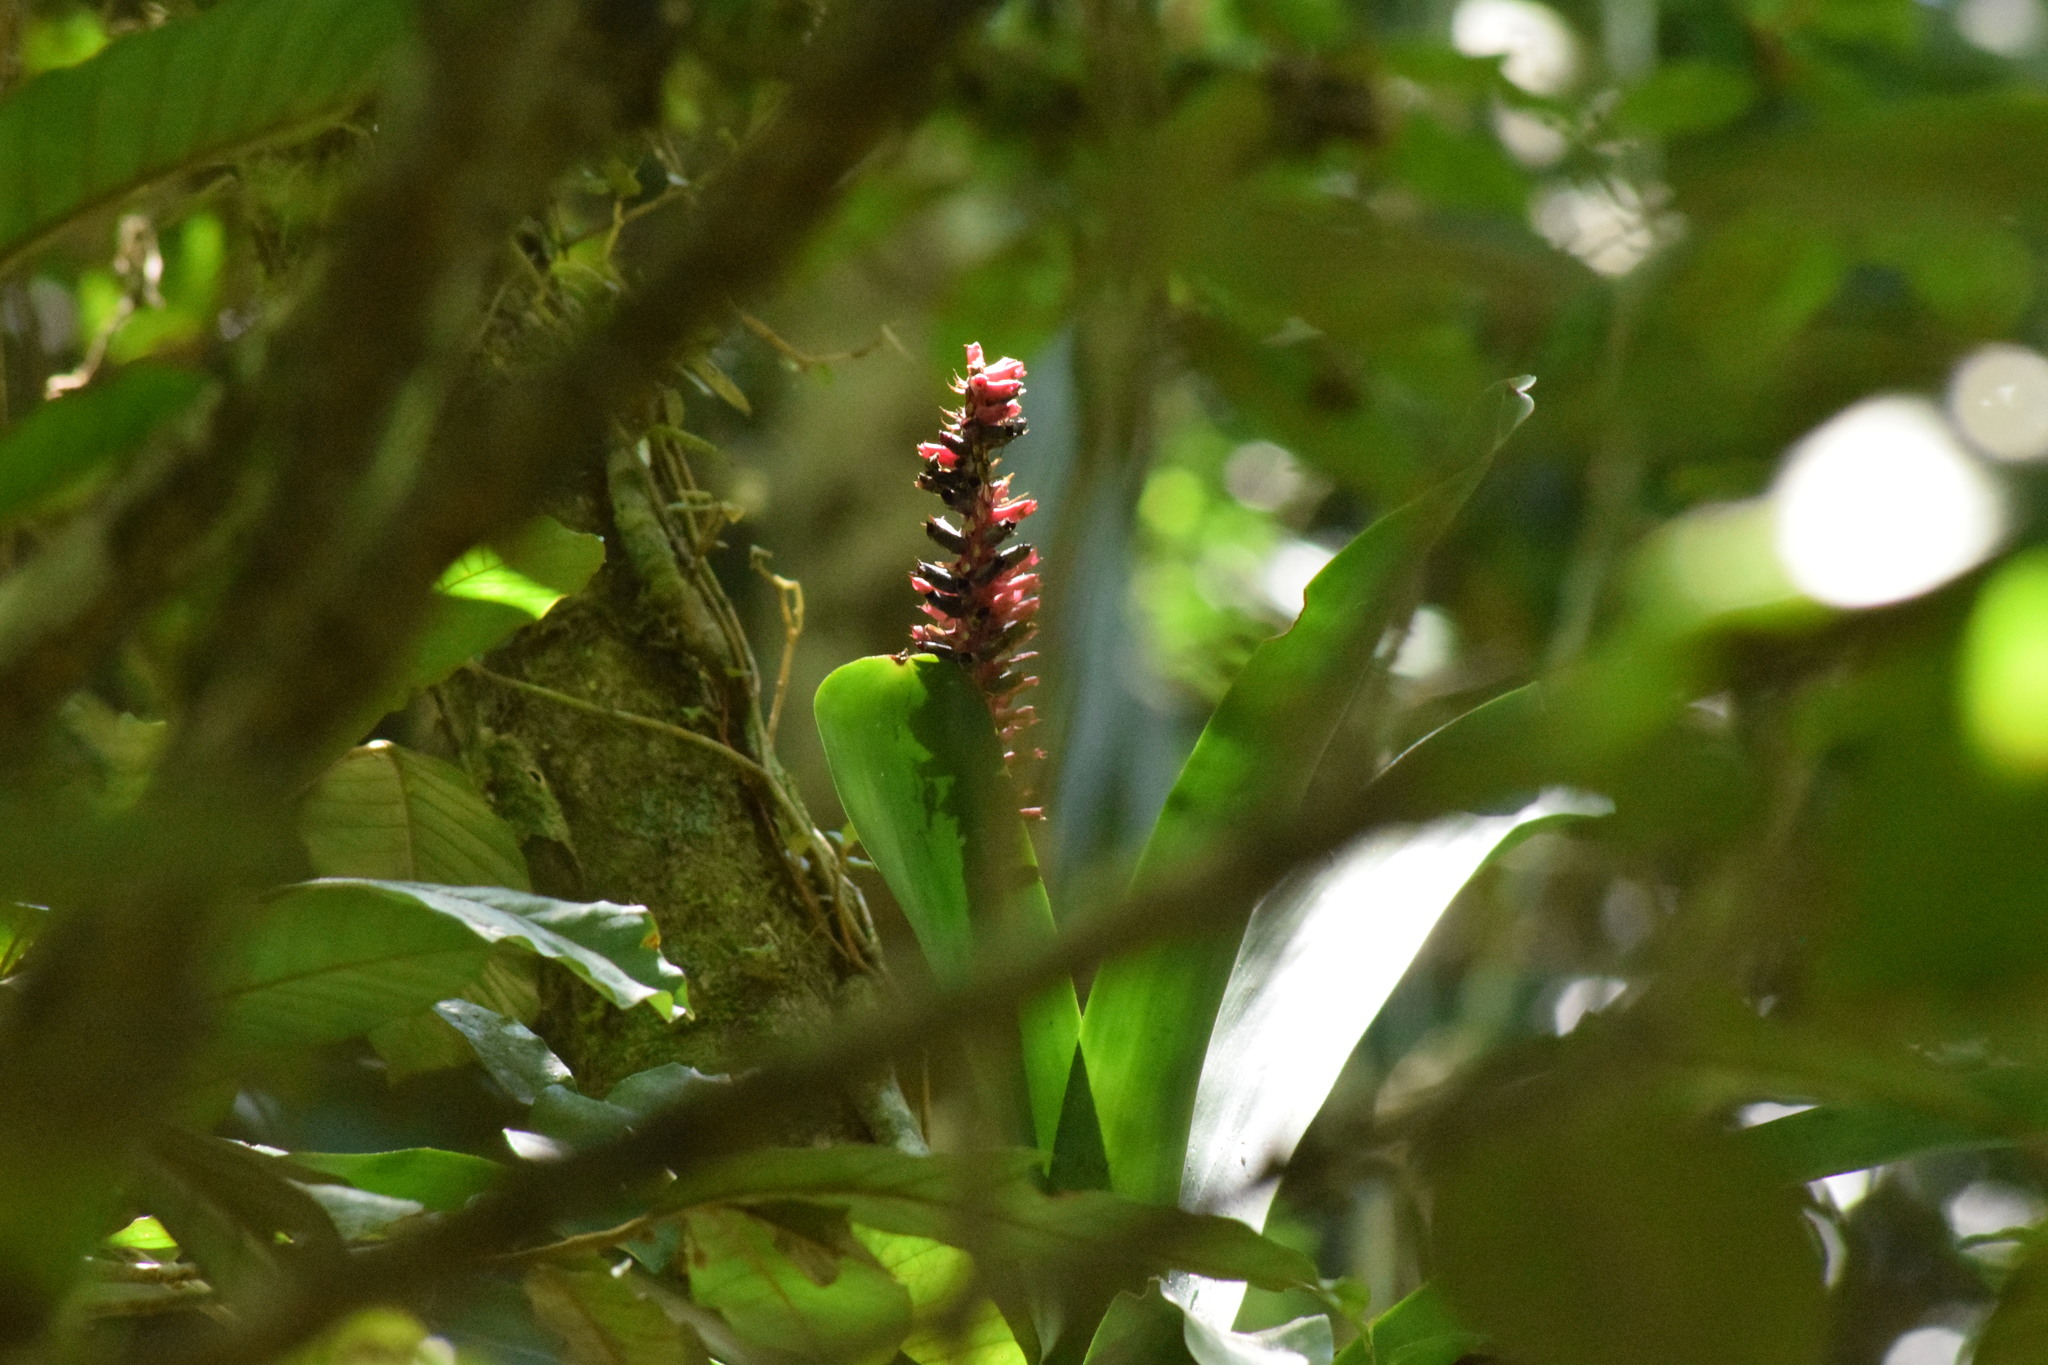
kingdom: Plantae
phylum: Tracheophyta
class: Liliopsida
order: Poales
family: Bromeliaceae
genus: Aechmea
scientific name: Aechmea cylindrata
